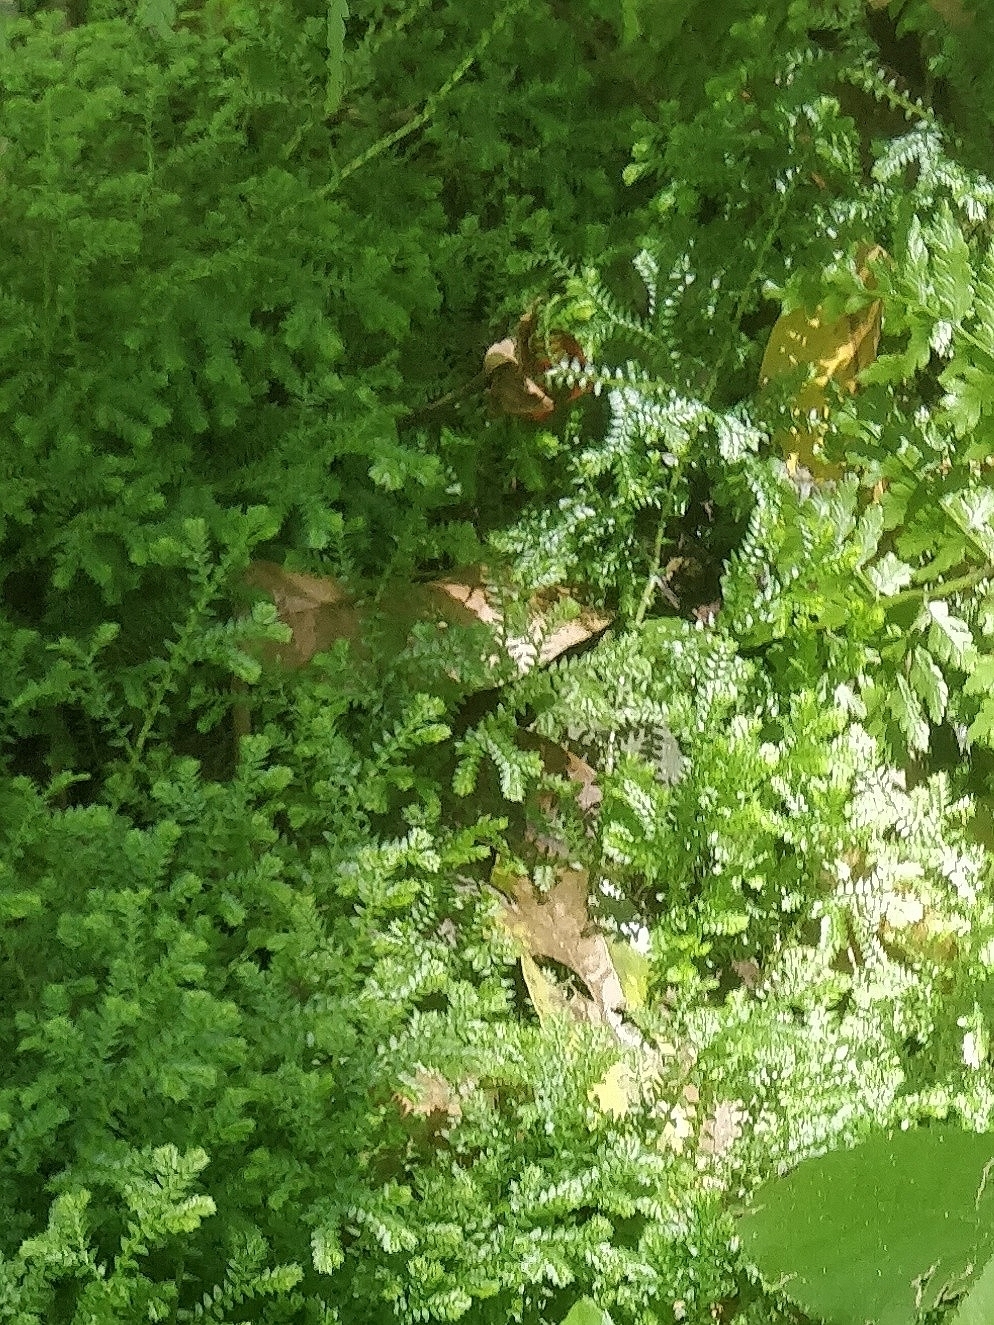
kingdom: Plantae
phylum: Tracheophyta
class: Lycopodiopsida
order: Selaginellales
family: Selaginellaceae
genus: Selaginella
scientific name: Selaginella kraussiana
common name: Krauss' spikemoss
